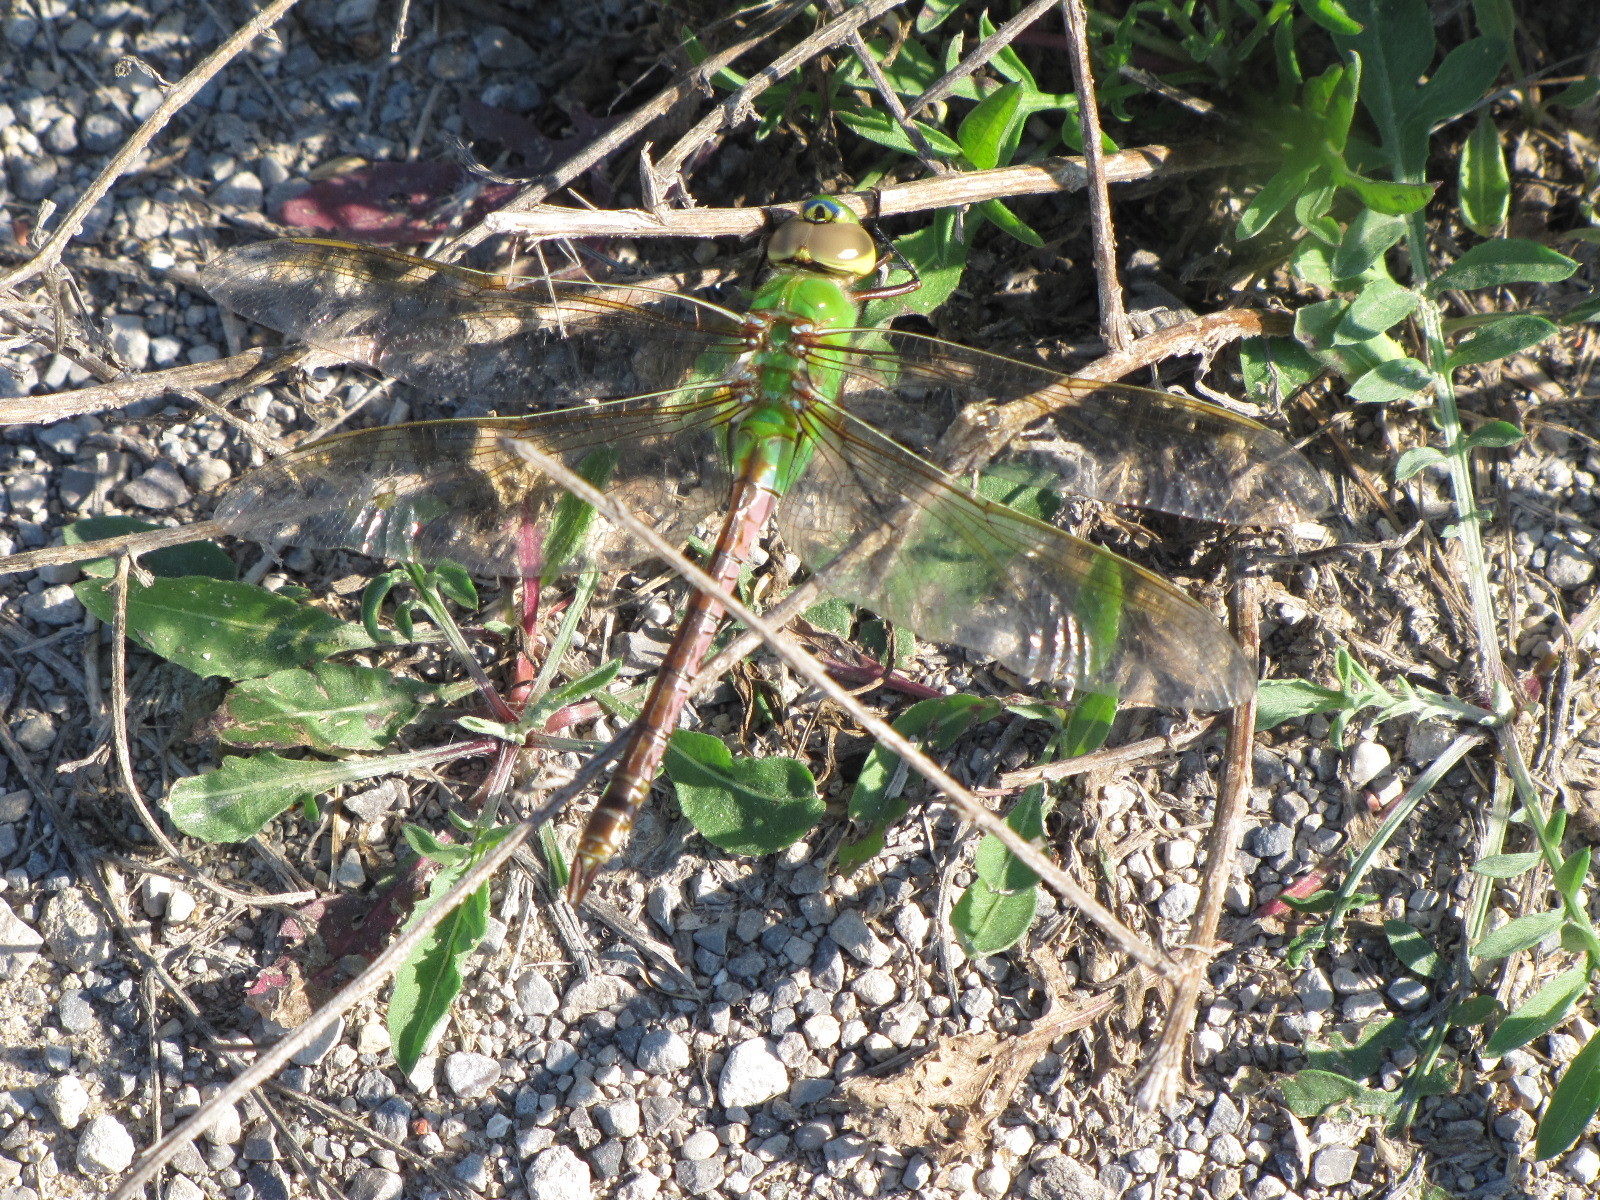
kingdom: Animalia
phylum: Arthropoda
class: Insecta
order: Odonata
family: Aeshnidae
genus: Anax
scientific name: Anax junius
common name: Common green darner
